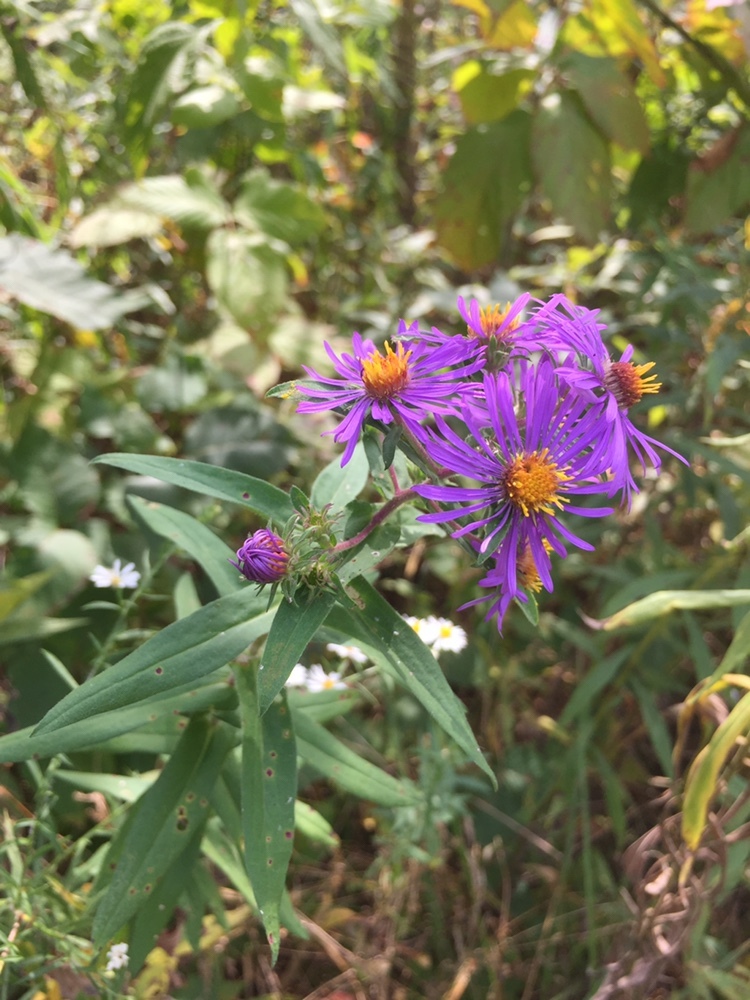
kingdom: Plantae
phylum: Tracheophyta
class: Magnoliopsida
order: Asterales
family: Asteraceae
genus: Symphyotrichum
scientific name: Symphyotrichum novae-angliae
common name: Michaelmas daisy
